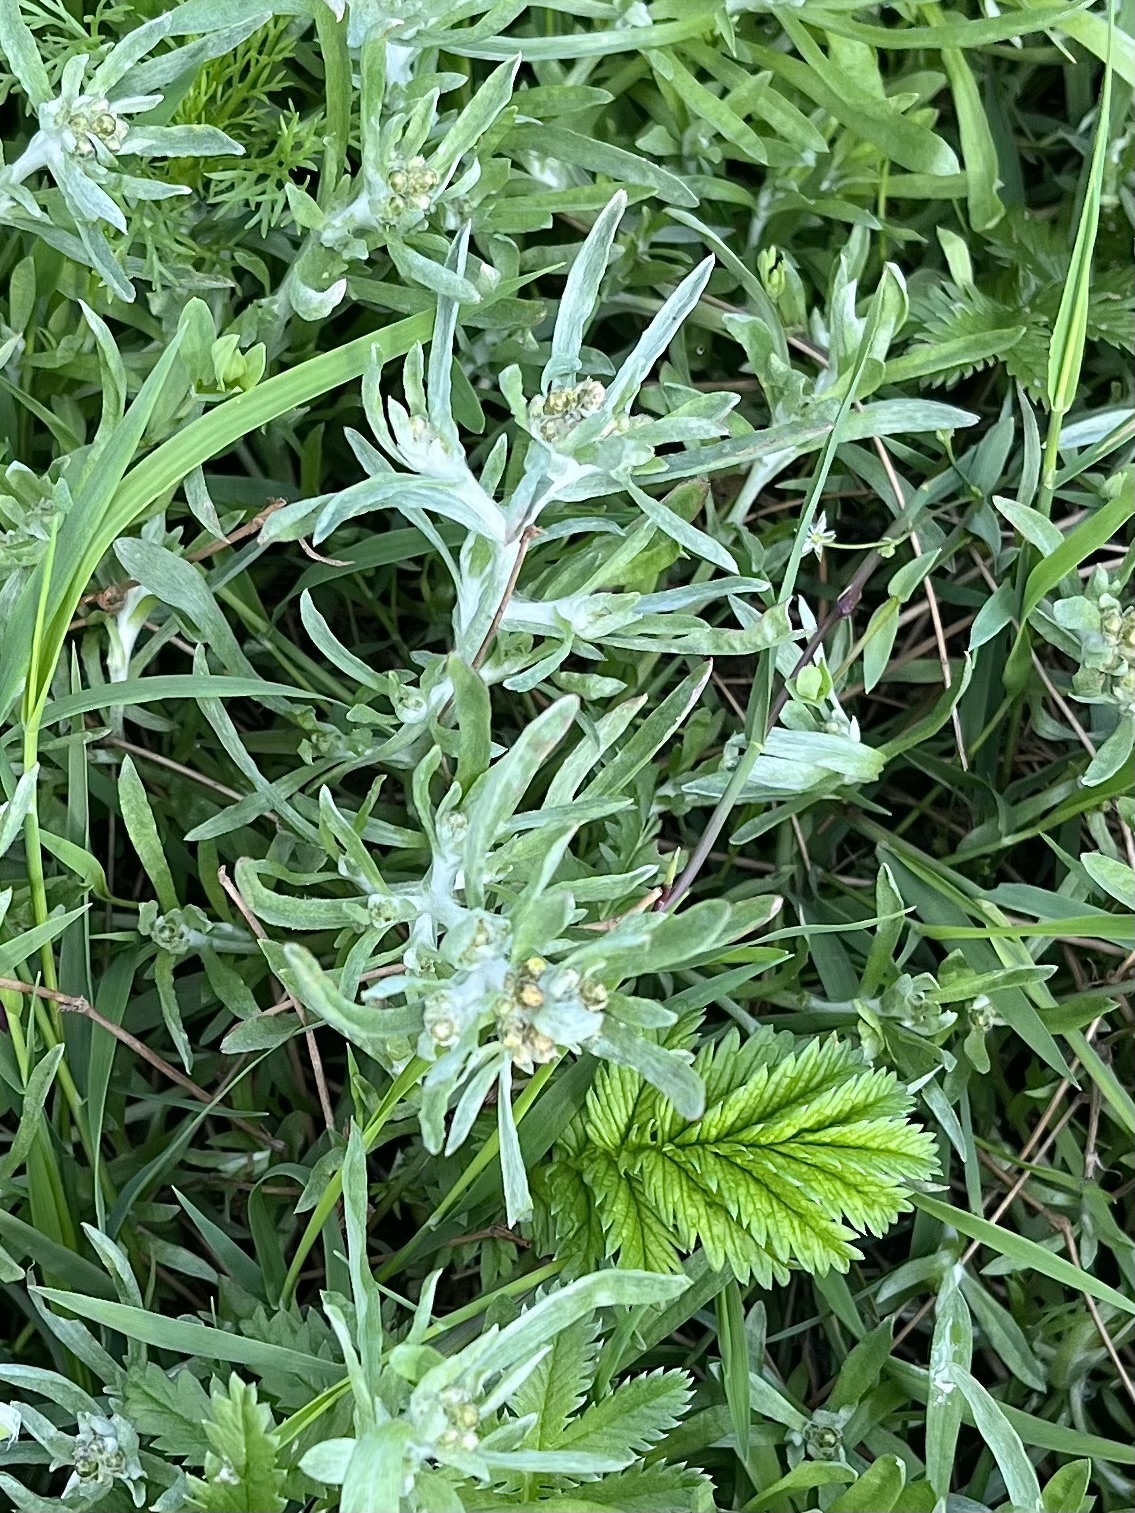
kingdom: Plantae
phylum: Tracheophyta
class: Magnoliopsida
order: Asterales
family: Asteraceae
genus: Gnaphalium
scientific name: Gnaphalium uliginosum
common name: Marsh cudweed
